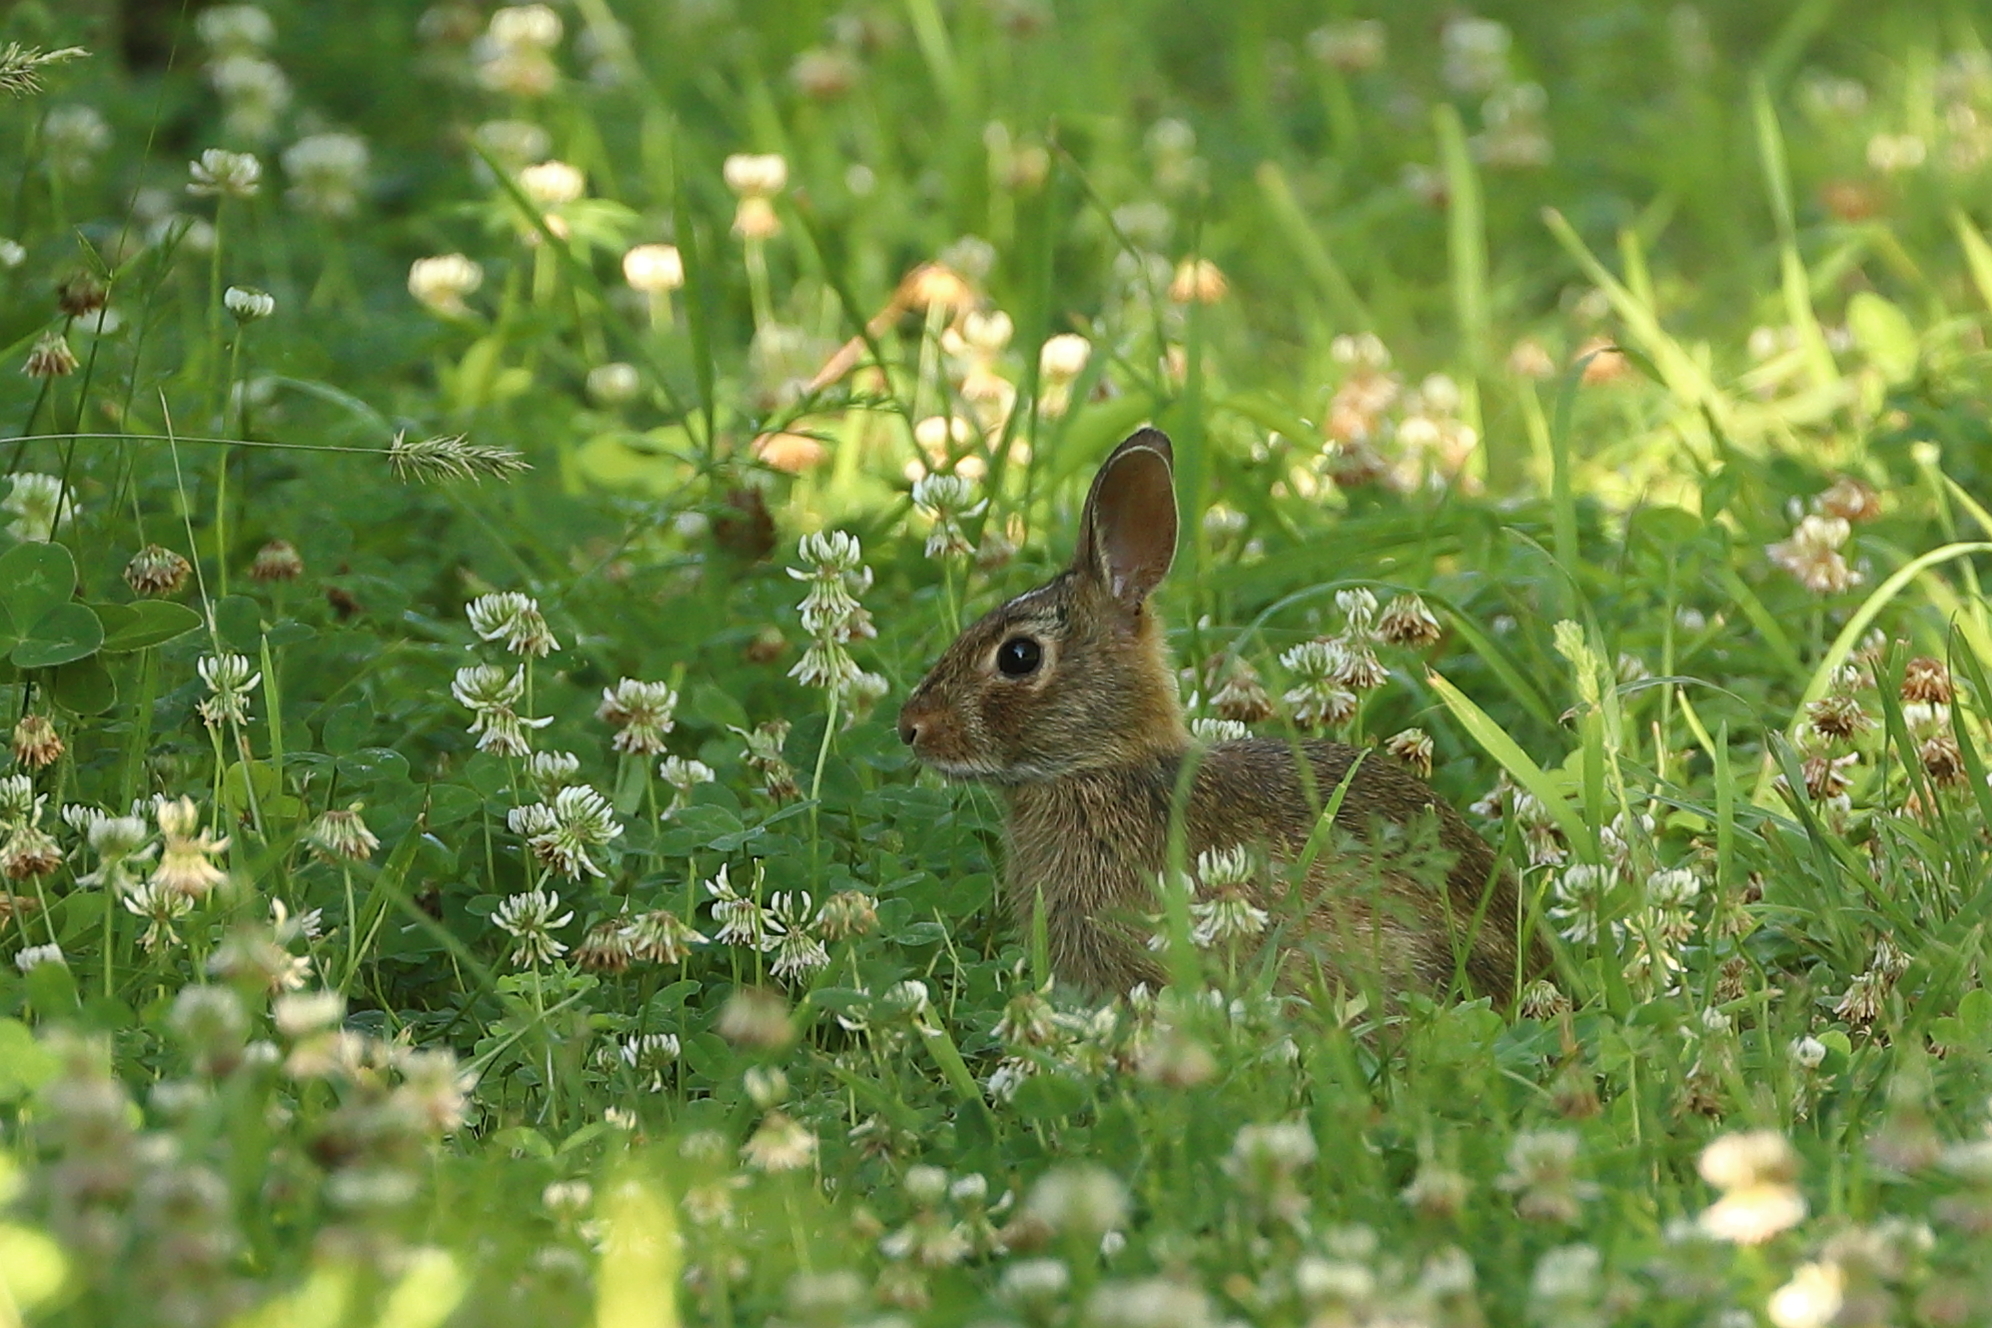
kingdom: Animalia
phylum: Chordata
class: Mammalia
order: Lagomorpha
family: Leporidae
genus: Sylvilagus
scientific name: Sylvilagus floridanus
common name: Eastern cottontail
